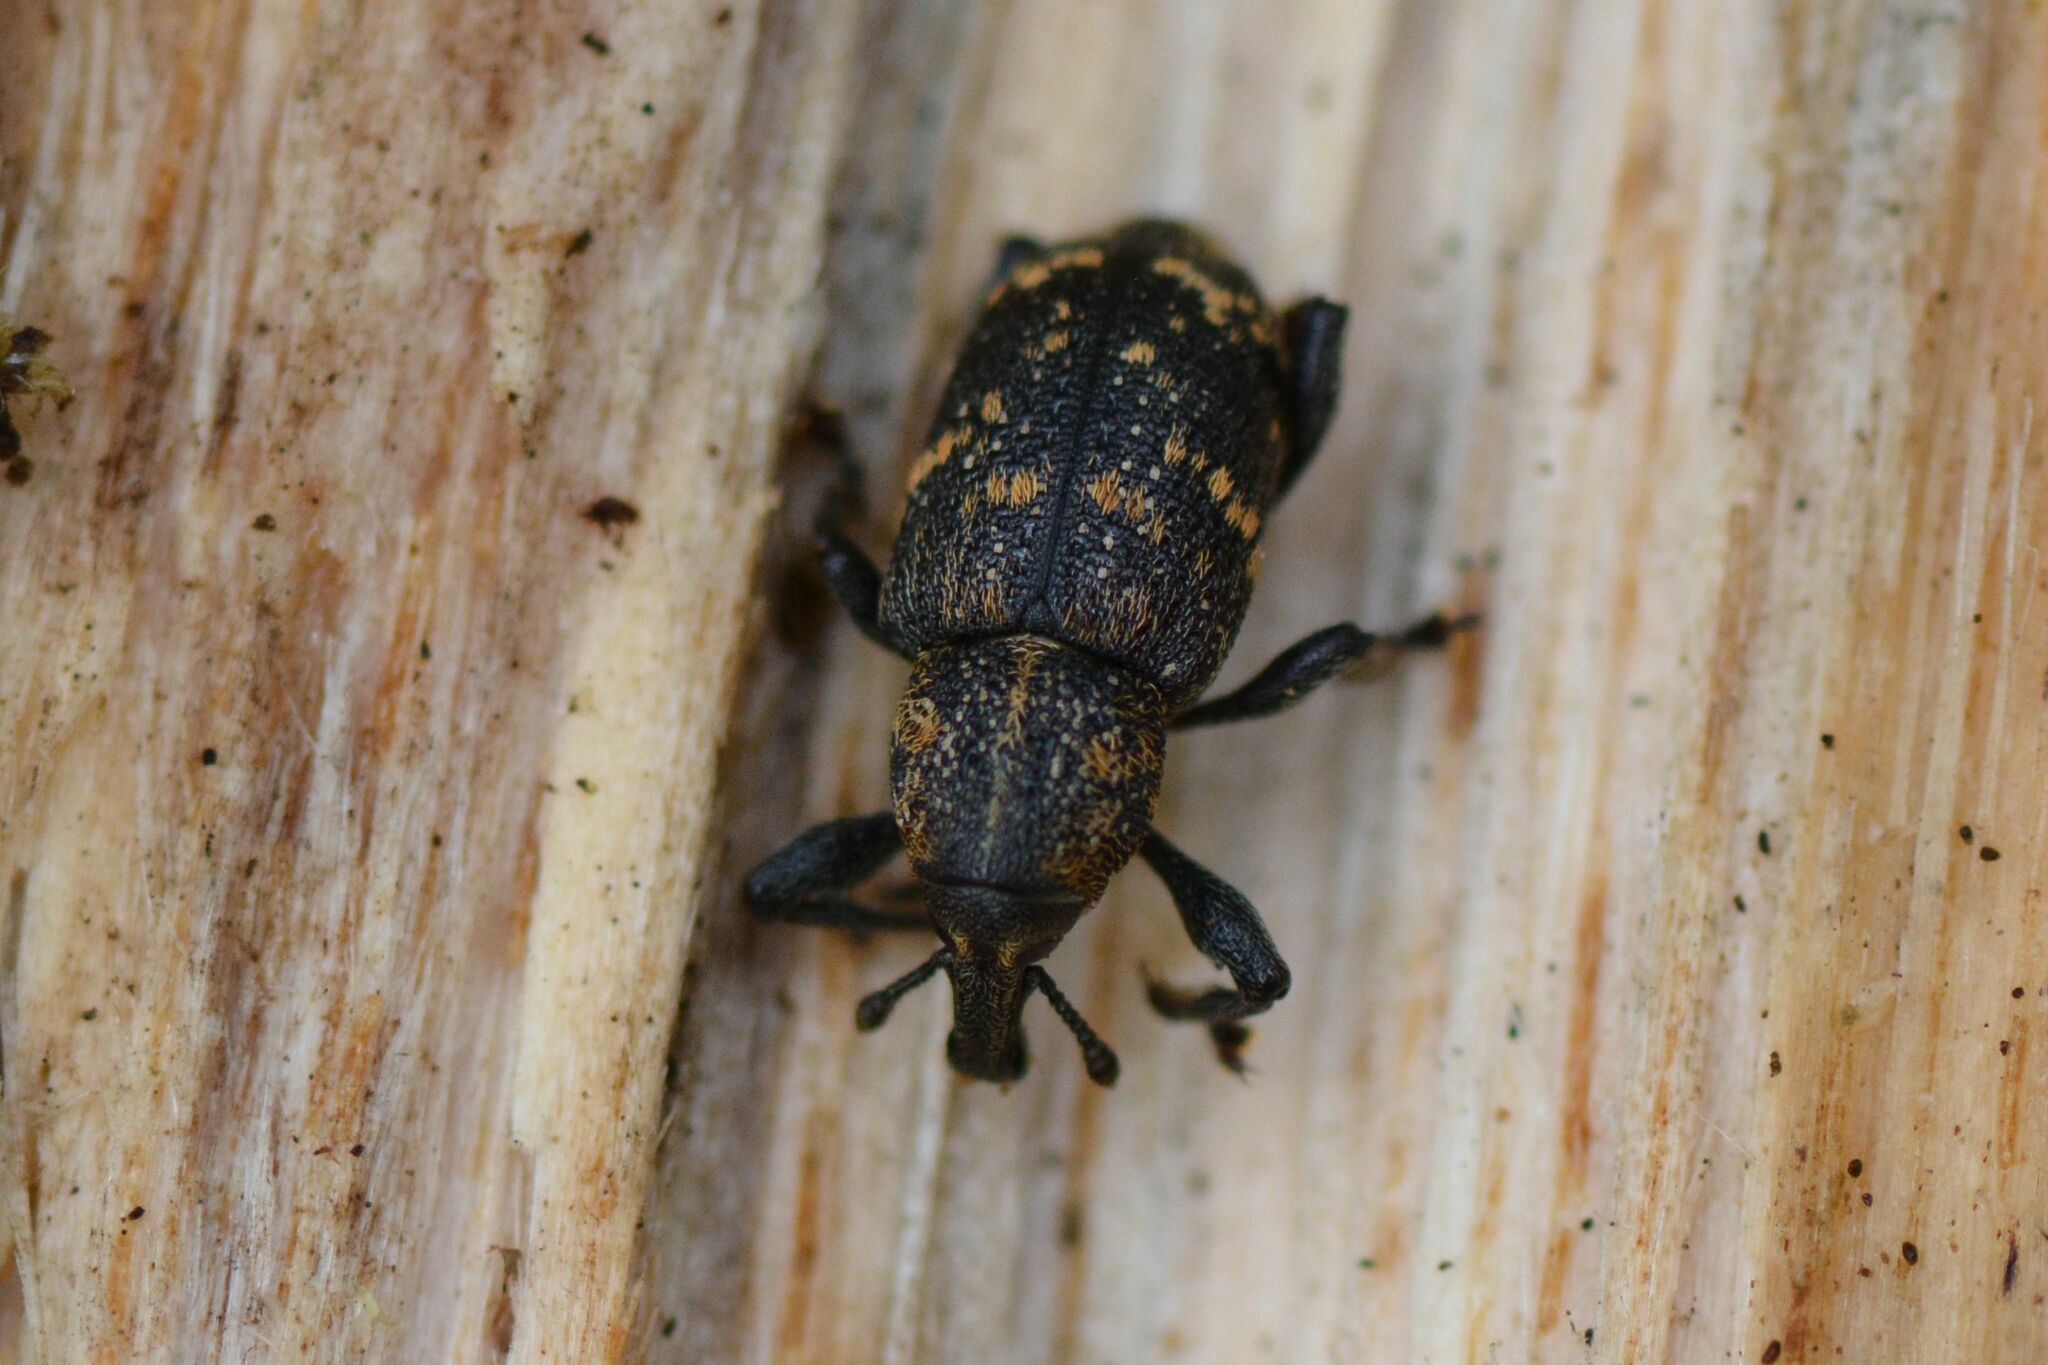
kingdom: Animalia
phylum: Arthropoda
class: Insecta
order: Coleoptera
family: Curculionidae
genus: Hylobius
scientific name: Hylobius abietis
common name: Large pine weevil
